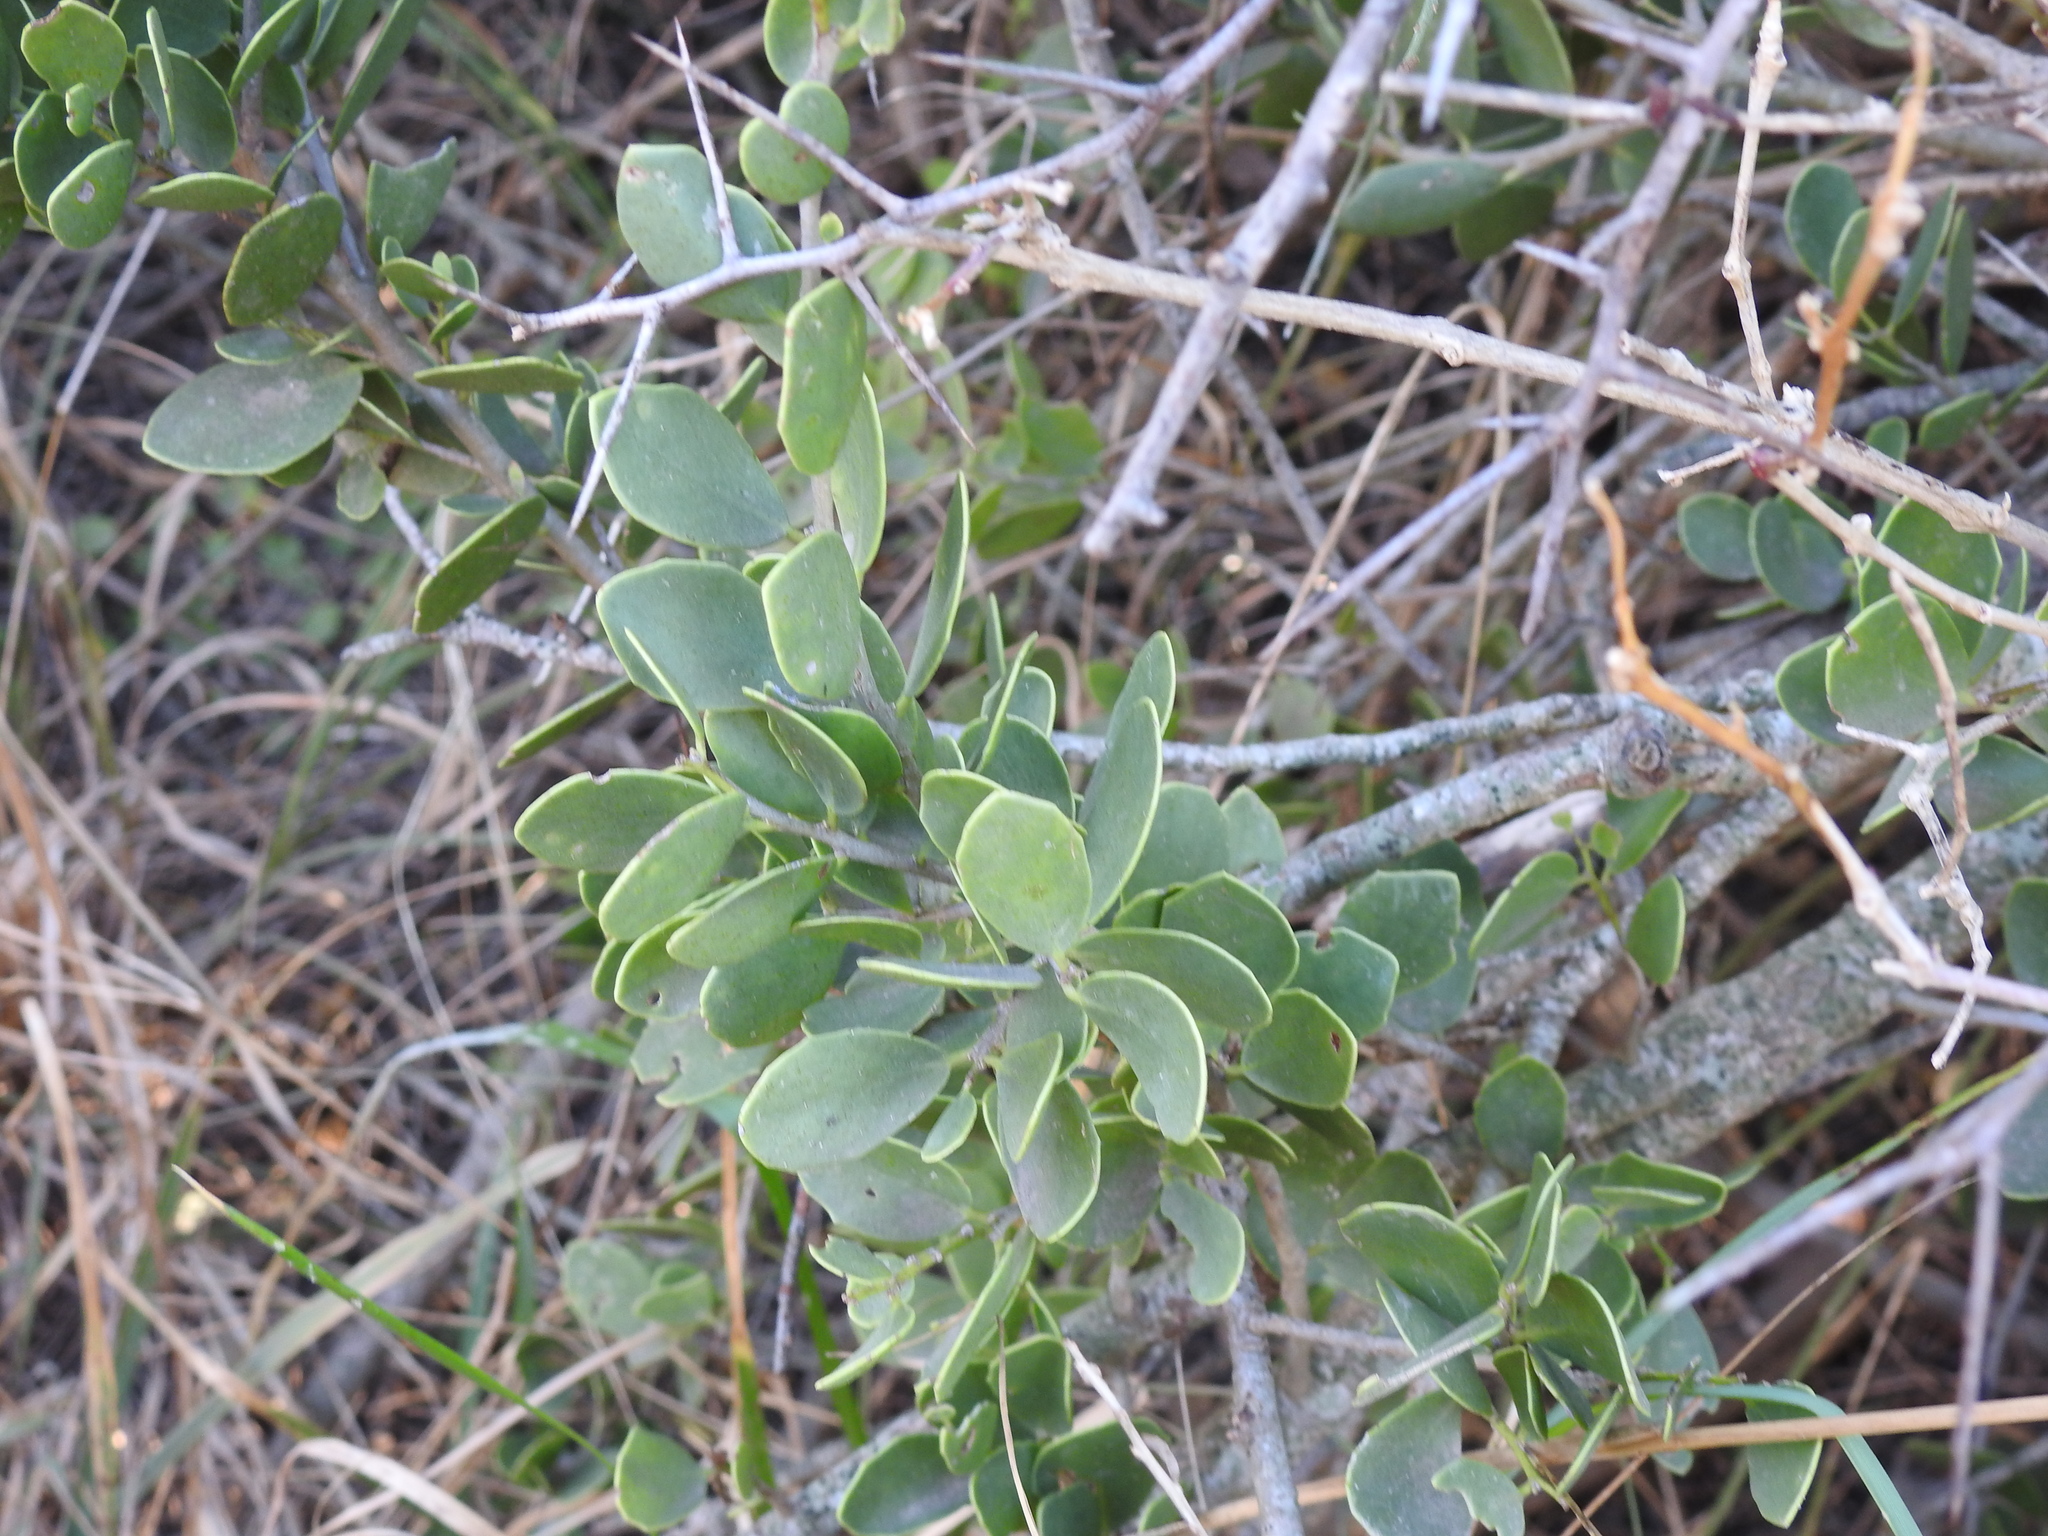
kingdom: Plantae
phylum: Tracheophyta
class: Magnoliopsida
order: Celastrales
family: Celastraceae
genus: Tricerma
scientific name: Tricerma vitis-idaeum
